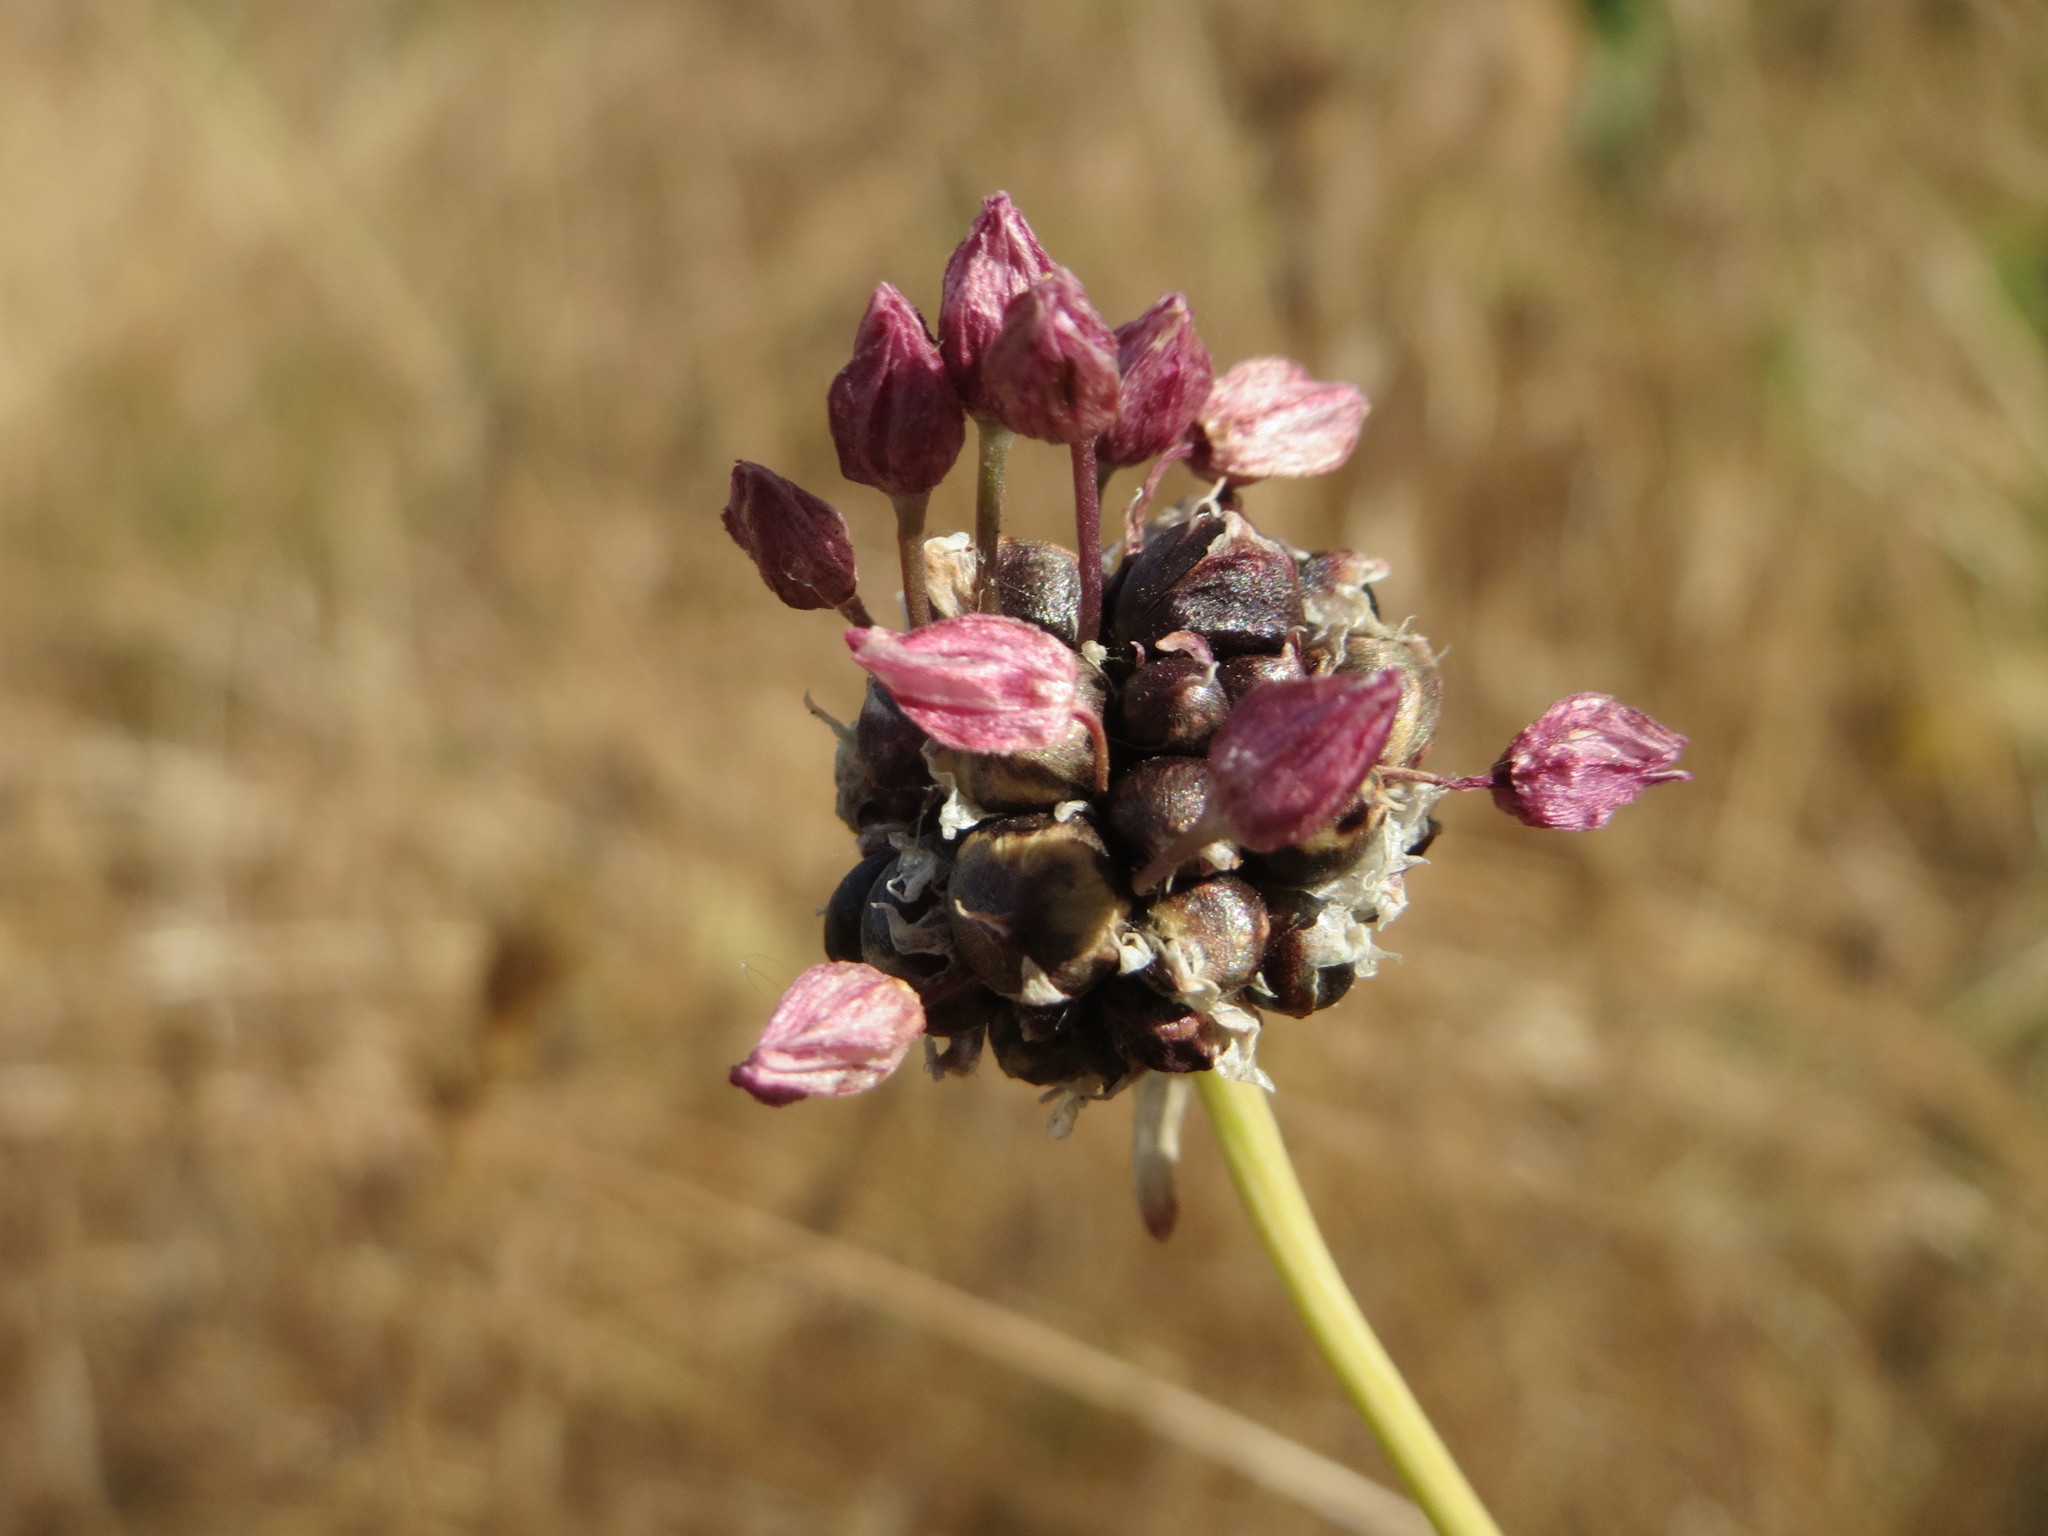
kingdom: Plantae
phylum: Tracheophyta
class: Liliopsida
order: Asparagales
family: Amaryllidaceae
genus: Allium
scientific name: Allium scorodoprasum
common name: Sand leek
